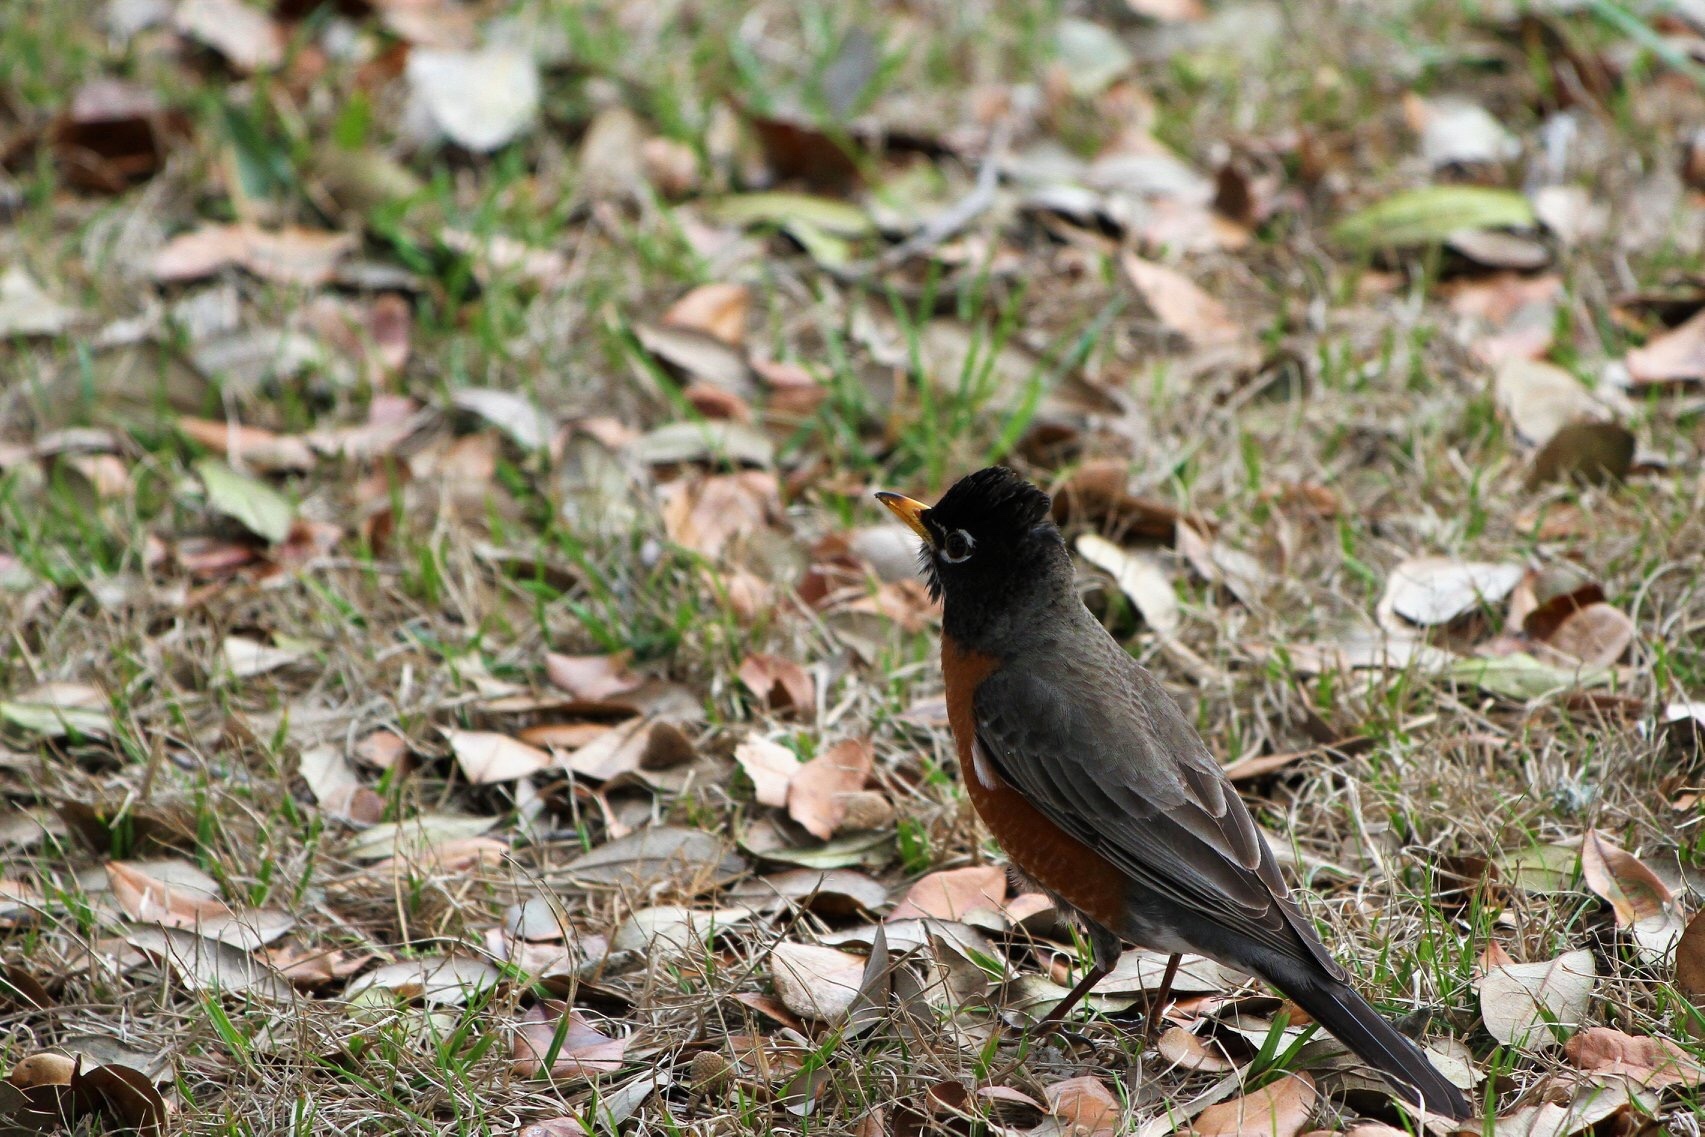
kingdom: Animalia
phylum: Chordata
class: Aves
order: Passeriformes
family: Turdidae
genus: Turdus
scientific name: Turdus migratorius
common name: American robin
